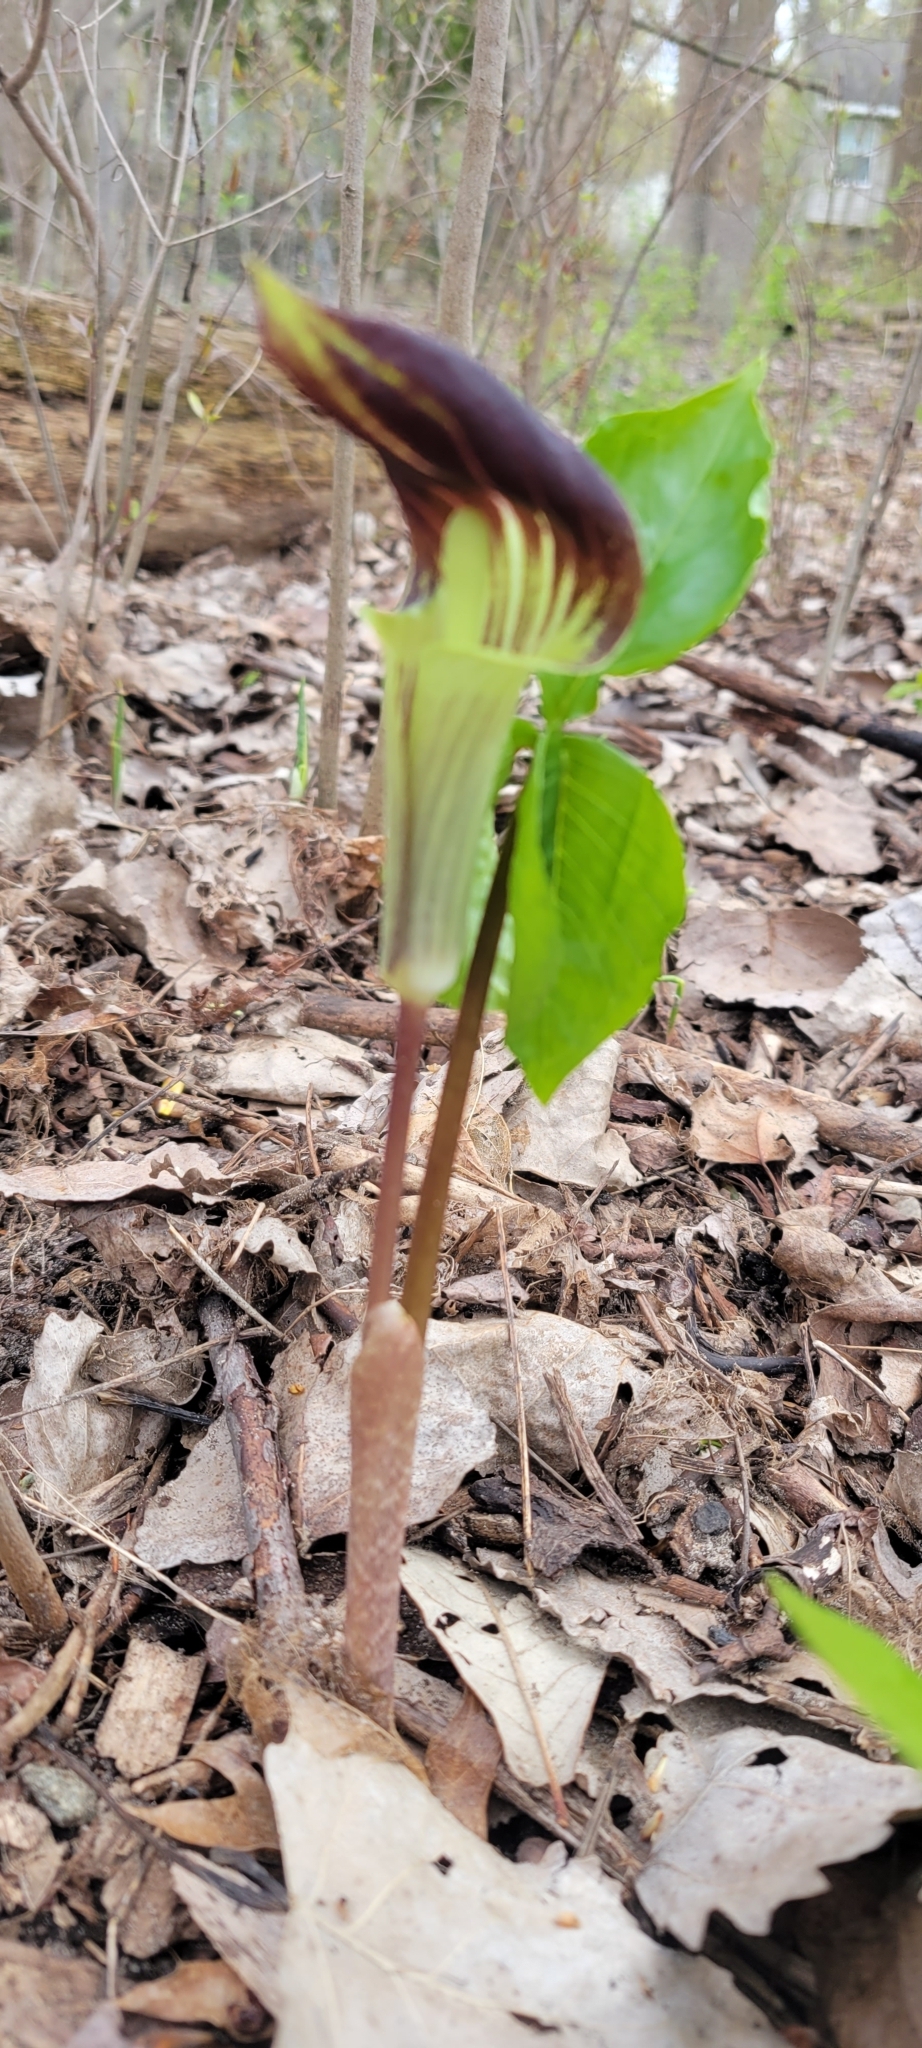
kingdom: Plantae
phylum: Tracheophyta
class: Liliopsida
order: Alismatales
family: Araceae
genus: Arisaema
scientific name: Arisaema triphyllum
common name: Jack-in-the-pulpit
